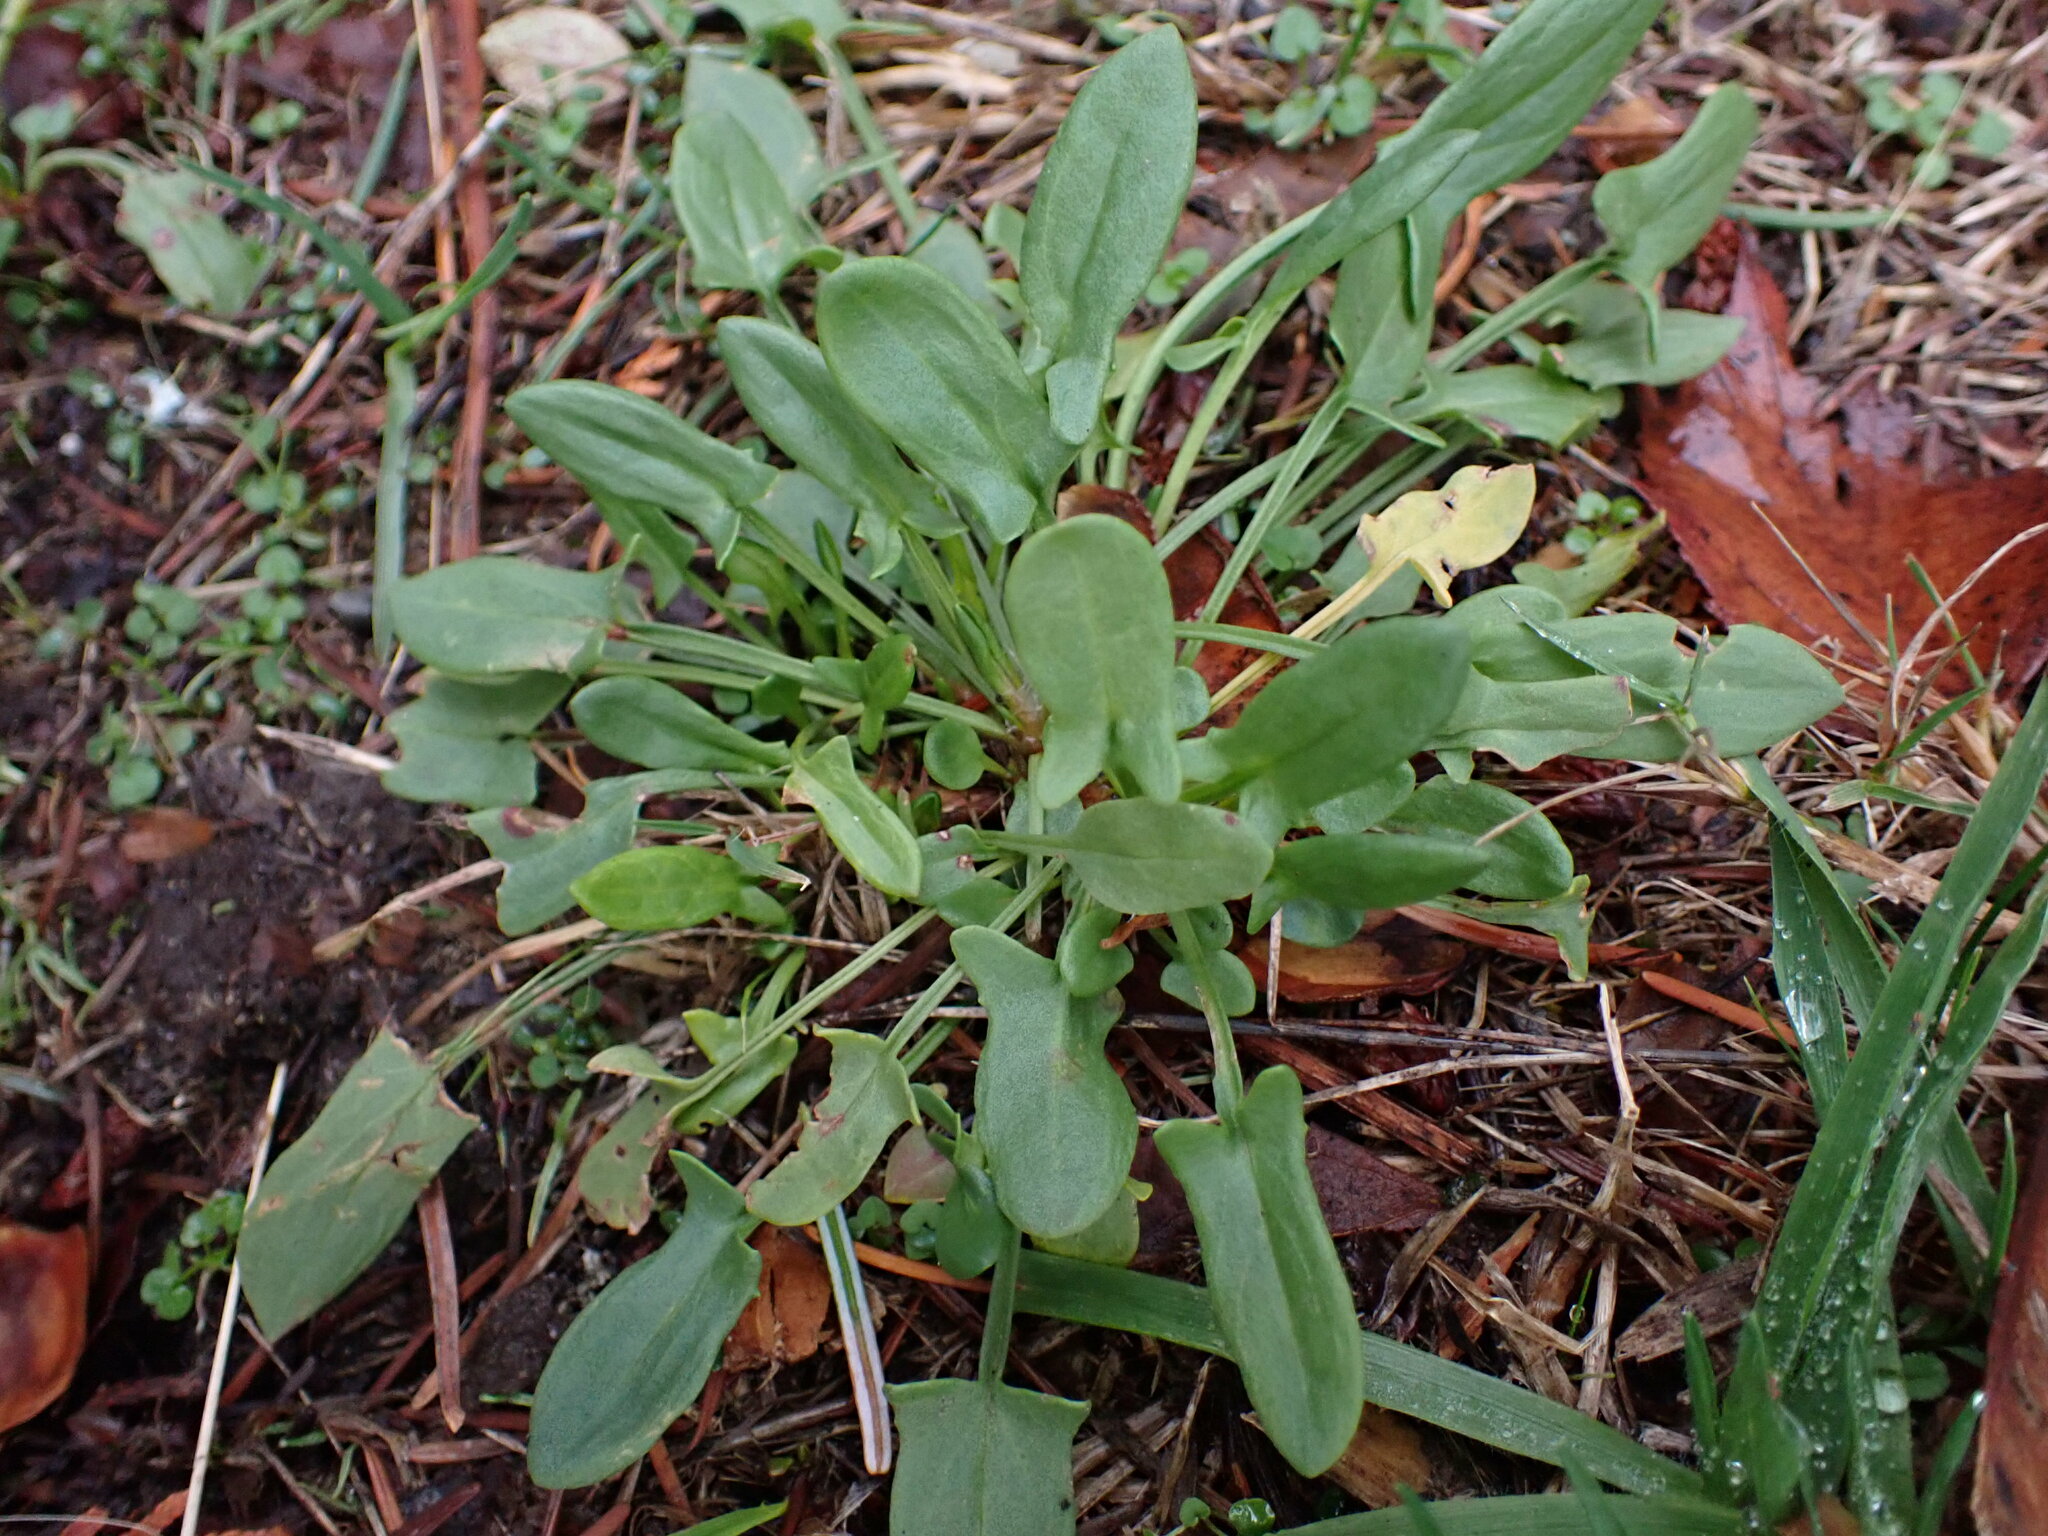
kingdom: Plantae
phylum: Tracheophyta
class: Magnoliopsida
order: Caryophyllales
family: Polygonaceae
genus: Rumex
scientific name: Rumex acetosella
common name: Common sheep sorrel
